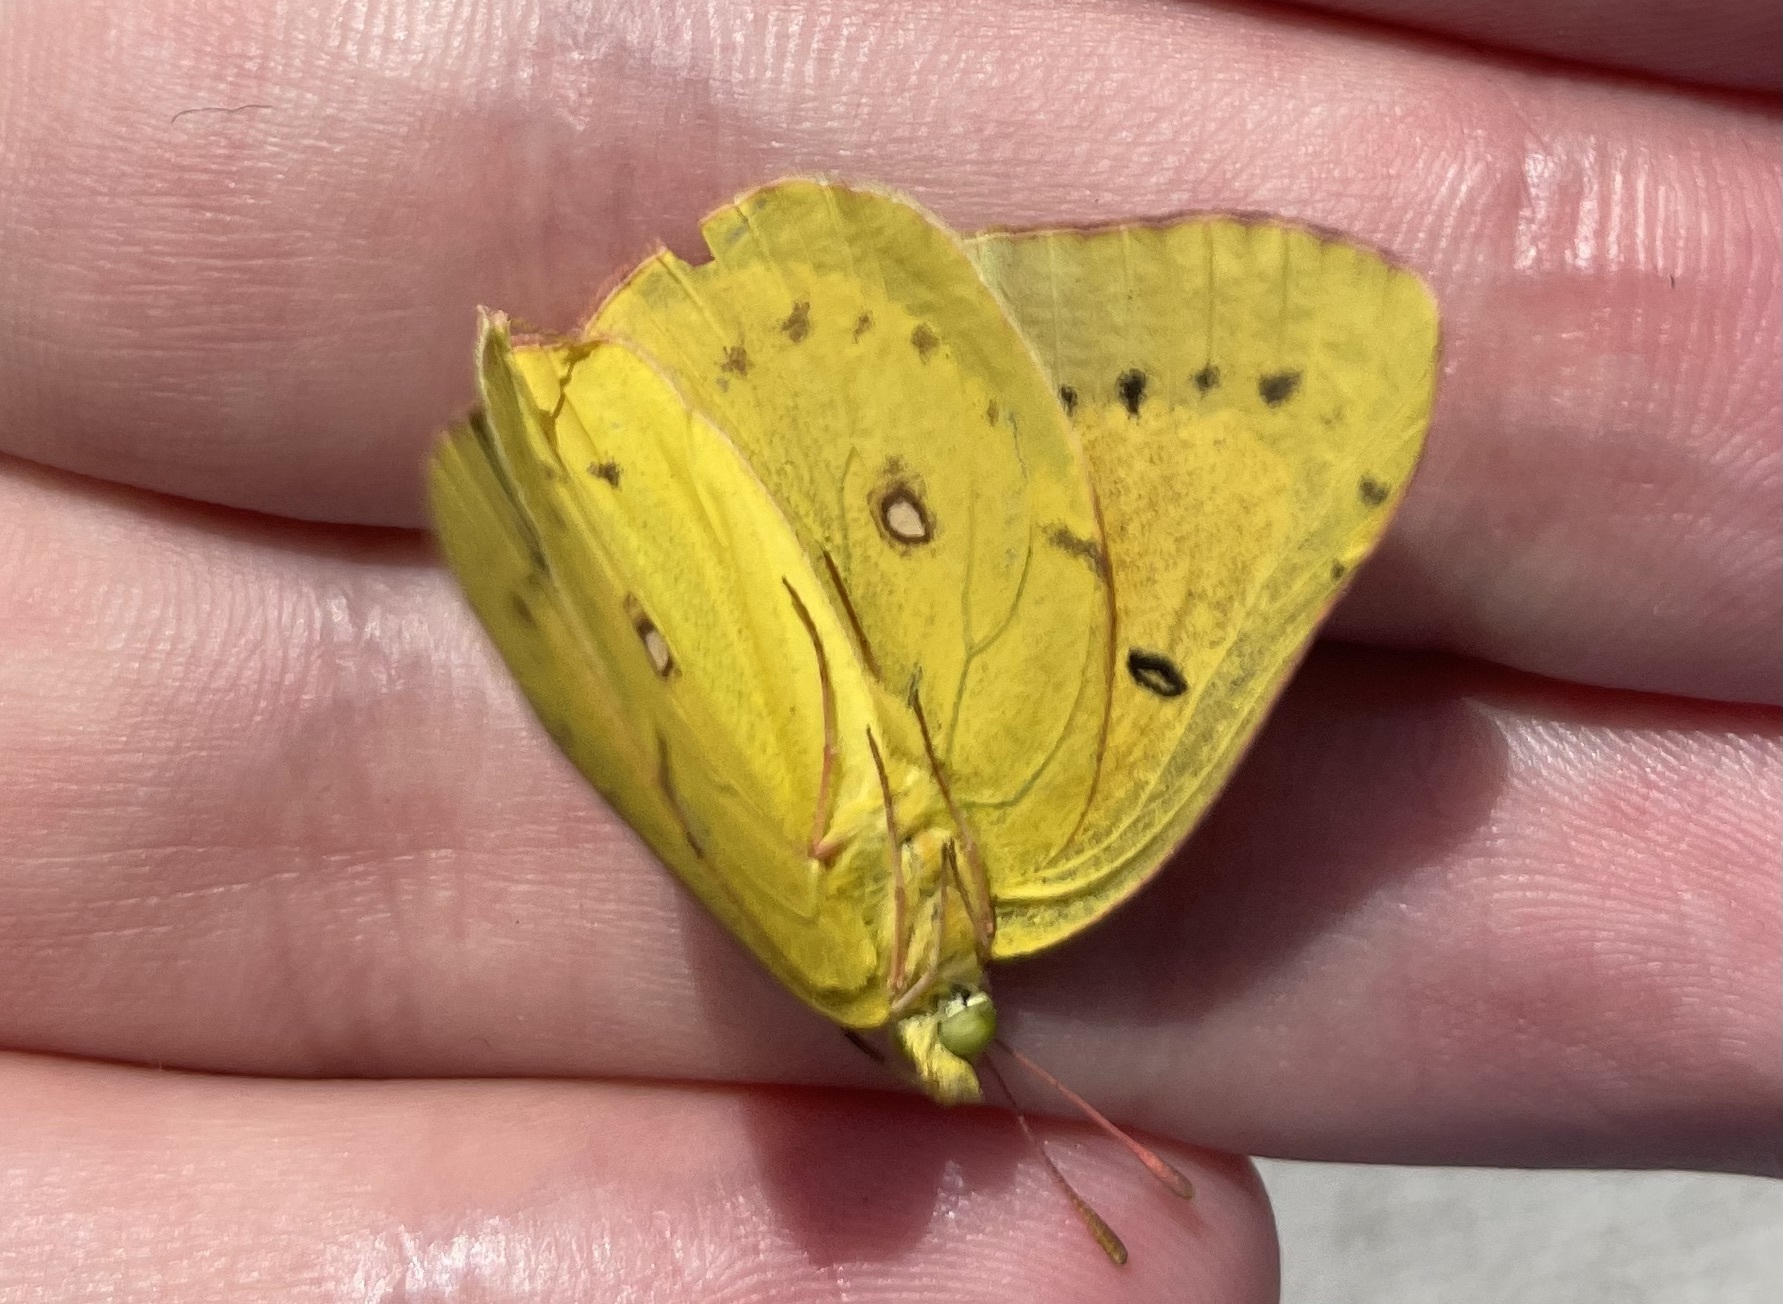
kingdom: Animalia
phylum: Arthropoda
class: Insecta
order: Lepidoptera
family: Pieridae
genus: Colias
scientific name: Colias eurytheme
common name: Alfalfa butterfly
